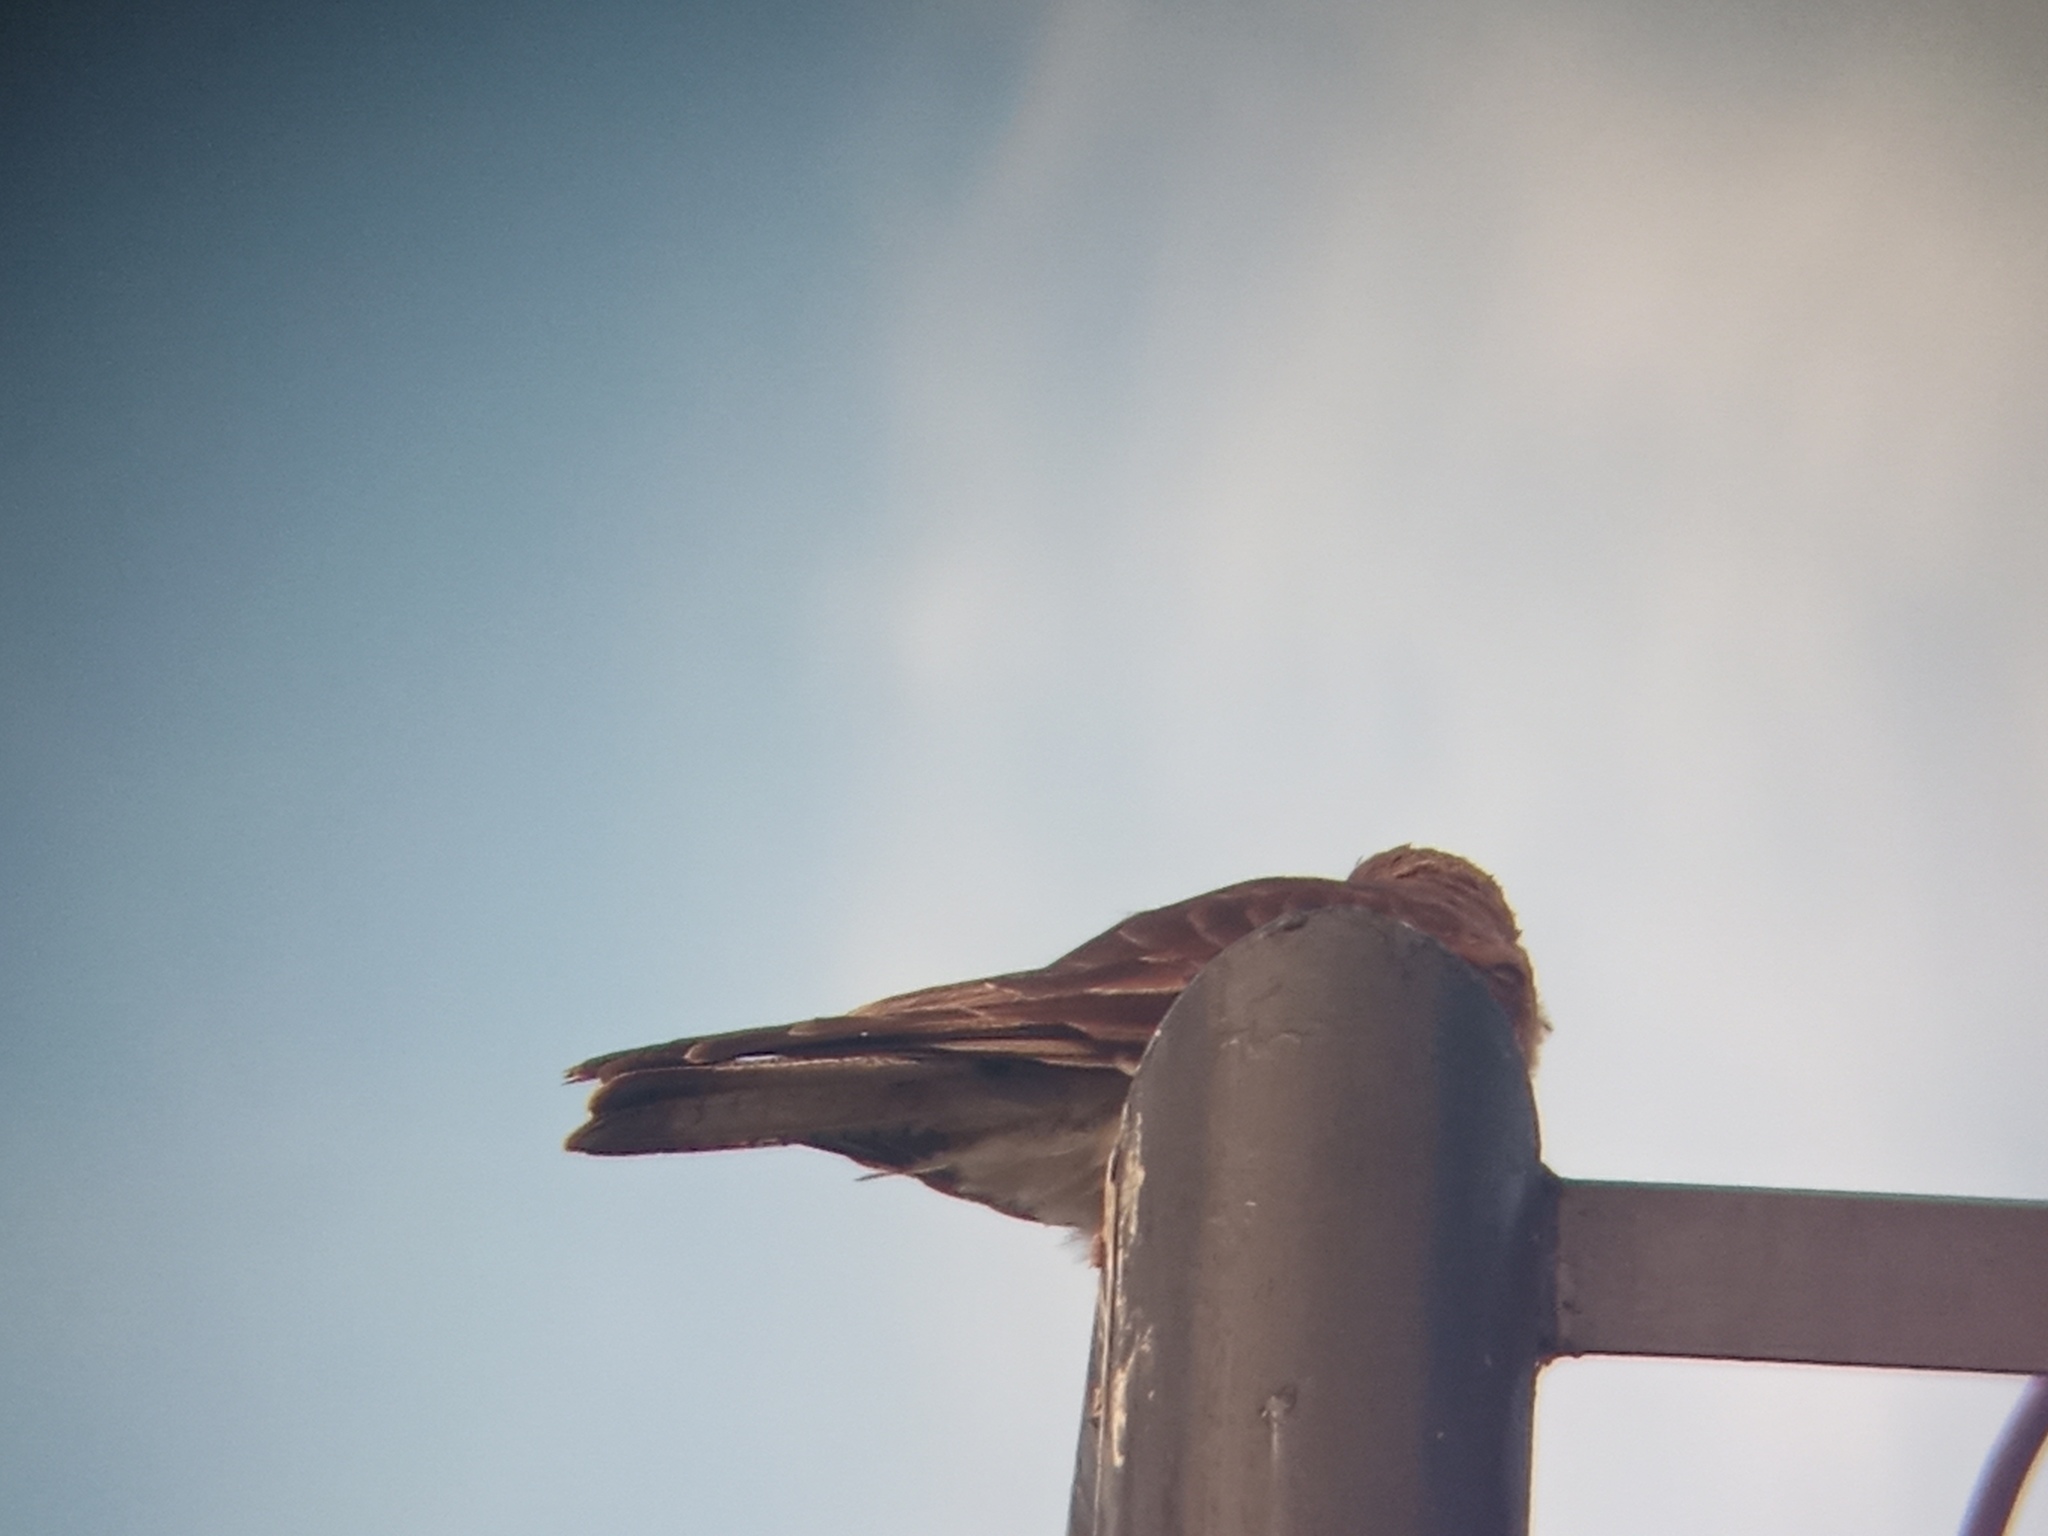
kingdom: Animalia
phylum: Chordata
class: Aves
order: Falconiformes
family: Falconidae
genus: Daptrius
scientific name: Daptrius
